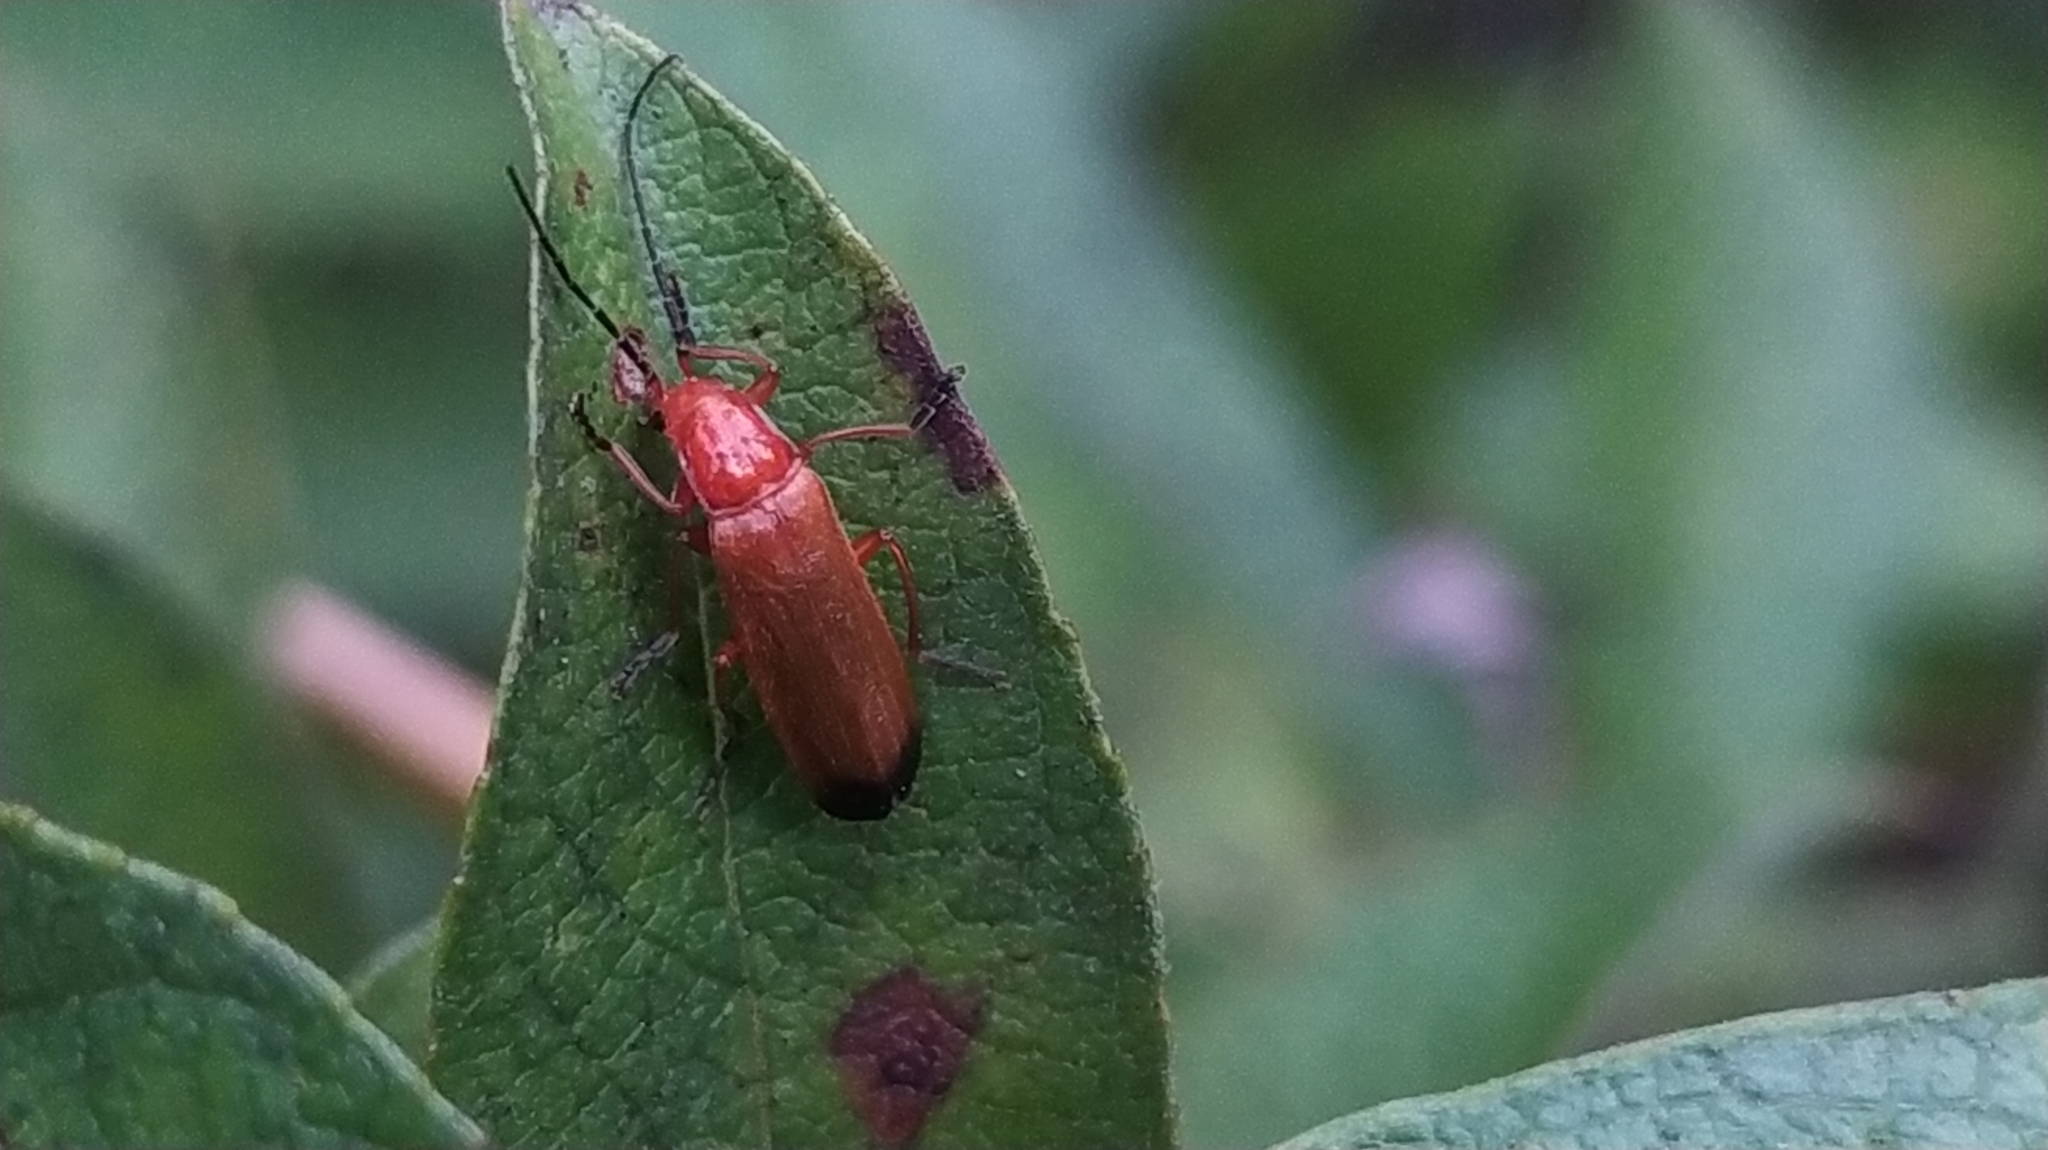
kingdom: Animalia
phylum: Arthropoda
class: Insecta
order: Coleoptera
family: Cantharidae
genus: Rhagonycha
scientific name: Rhagonycha fulva
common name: Common red soldier beetle
